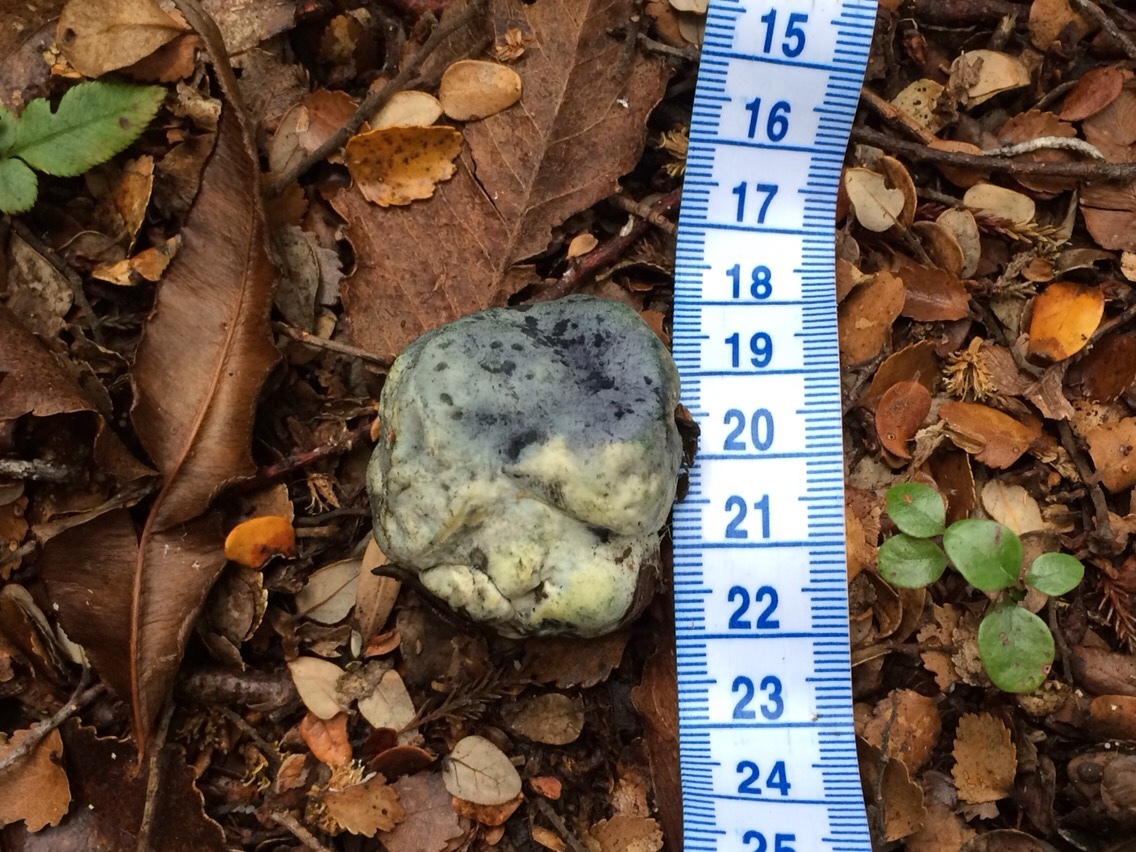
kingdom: Fungi
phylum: Basidiomycota
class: Agaricomycetes
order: Boletales
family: Boletaceae
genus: Leccinum
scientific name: Leccinum pachyderme
